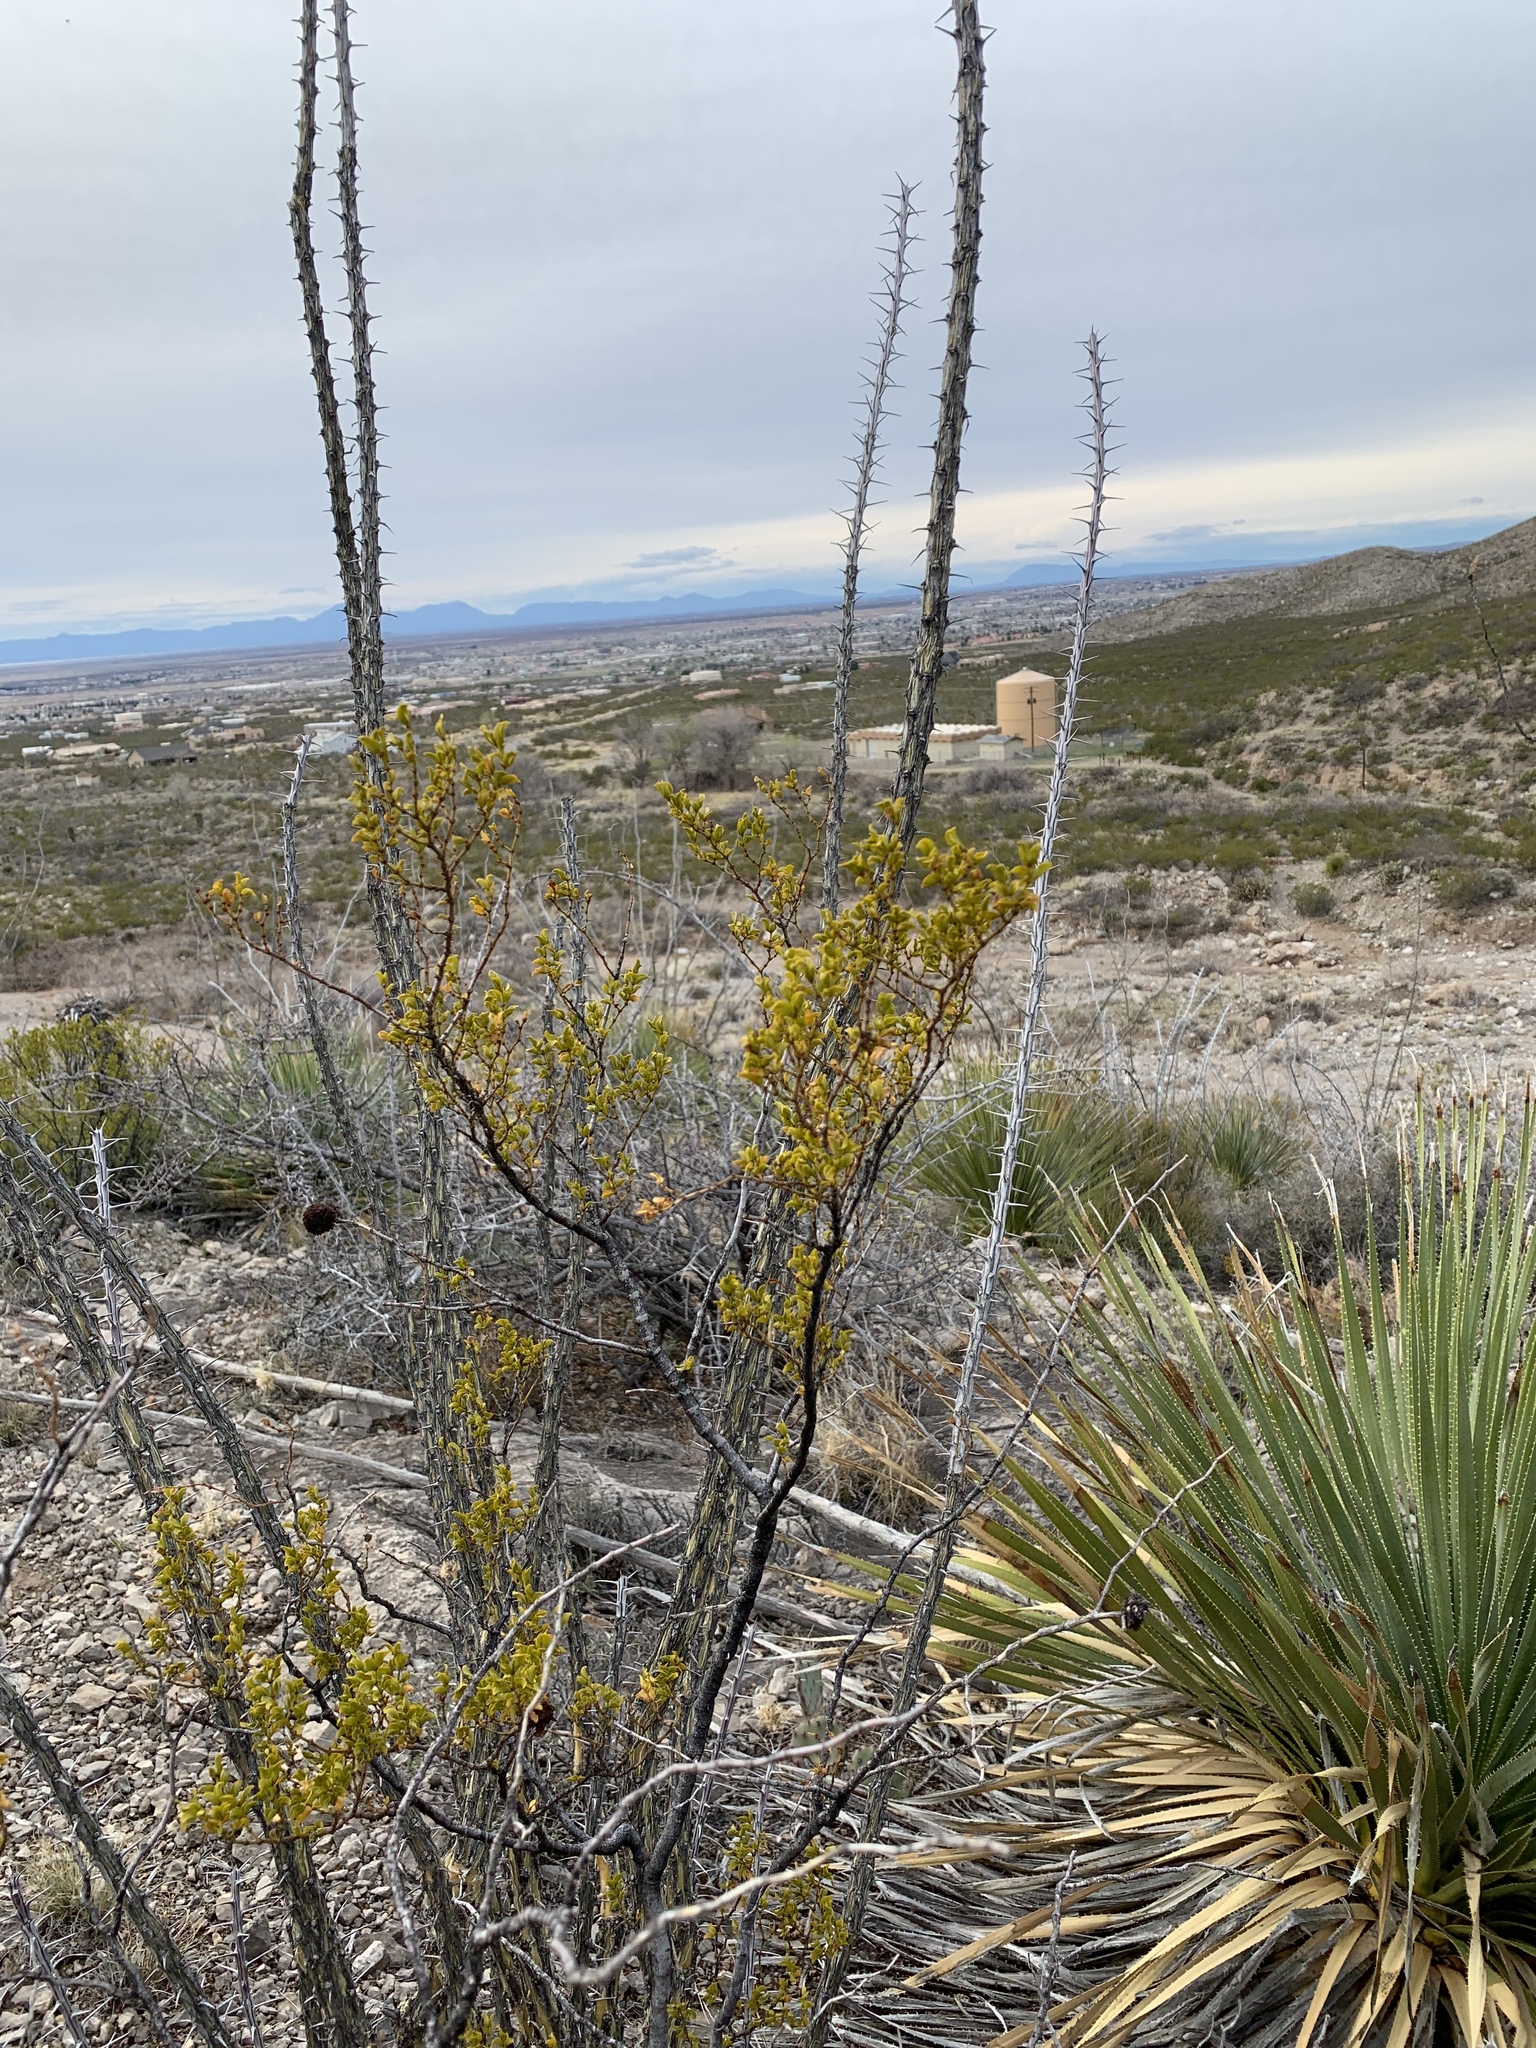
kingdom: Plantae
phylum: Tracheophyta
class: Magnoliopsida
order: Zygophyllales
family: Zygophyllaceae
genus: Larrea
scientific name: Larrea tridentata
